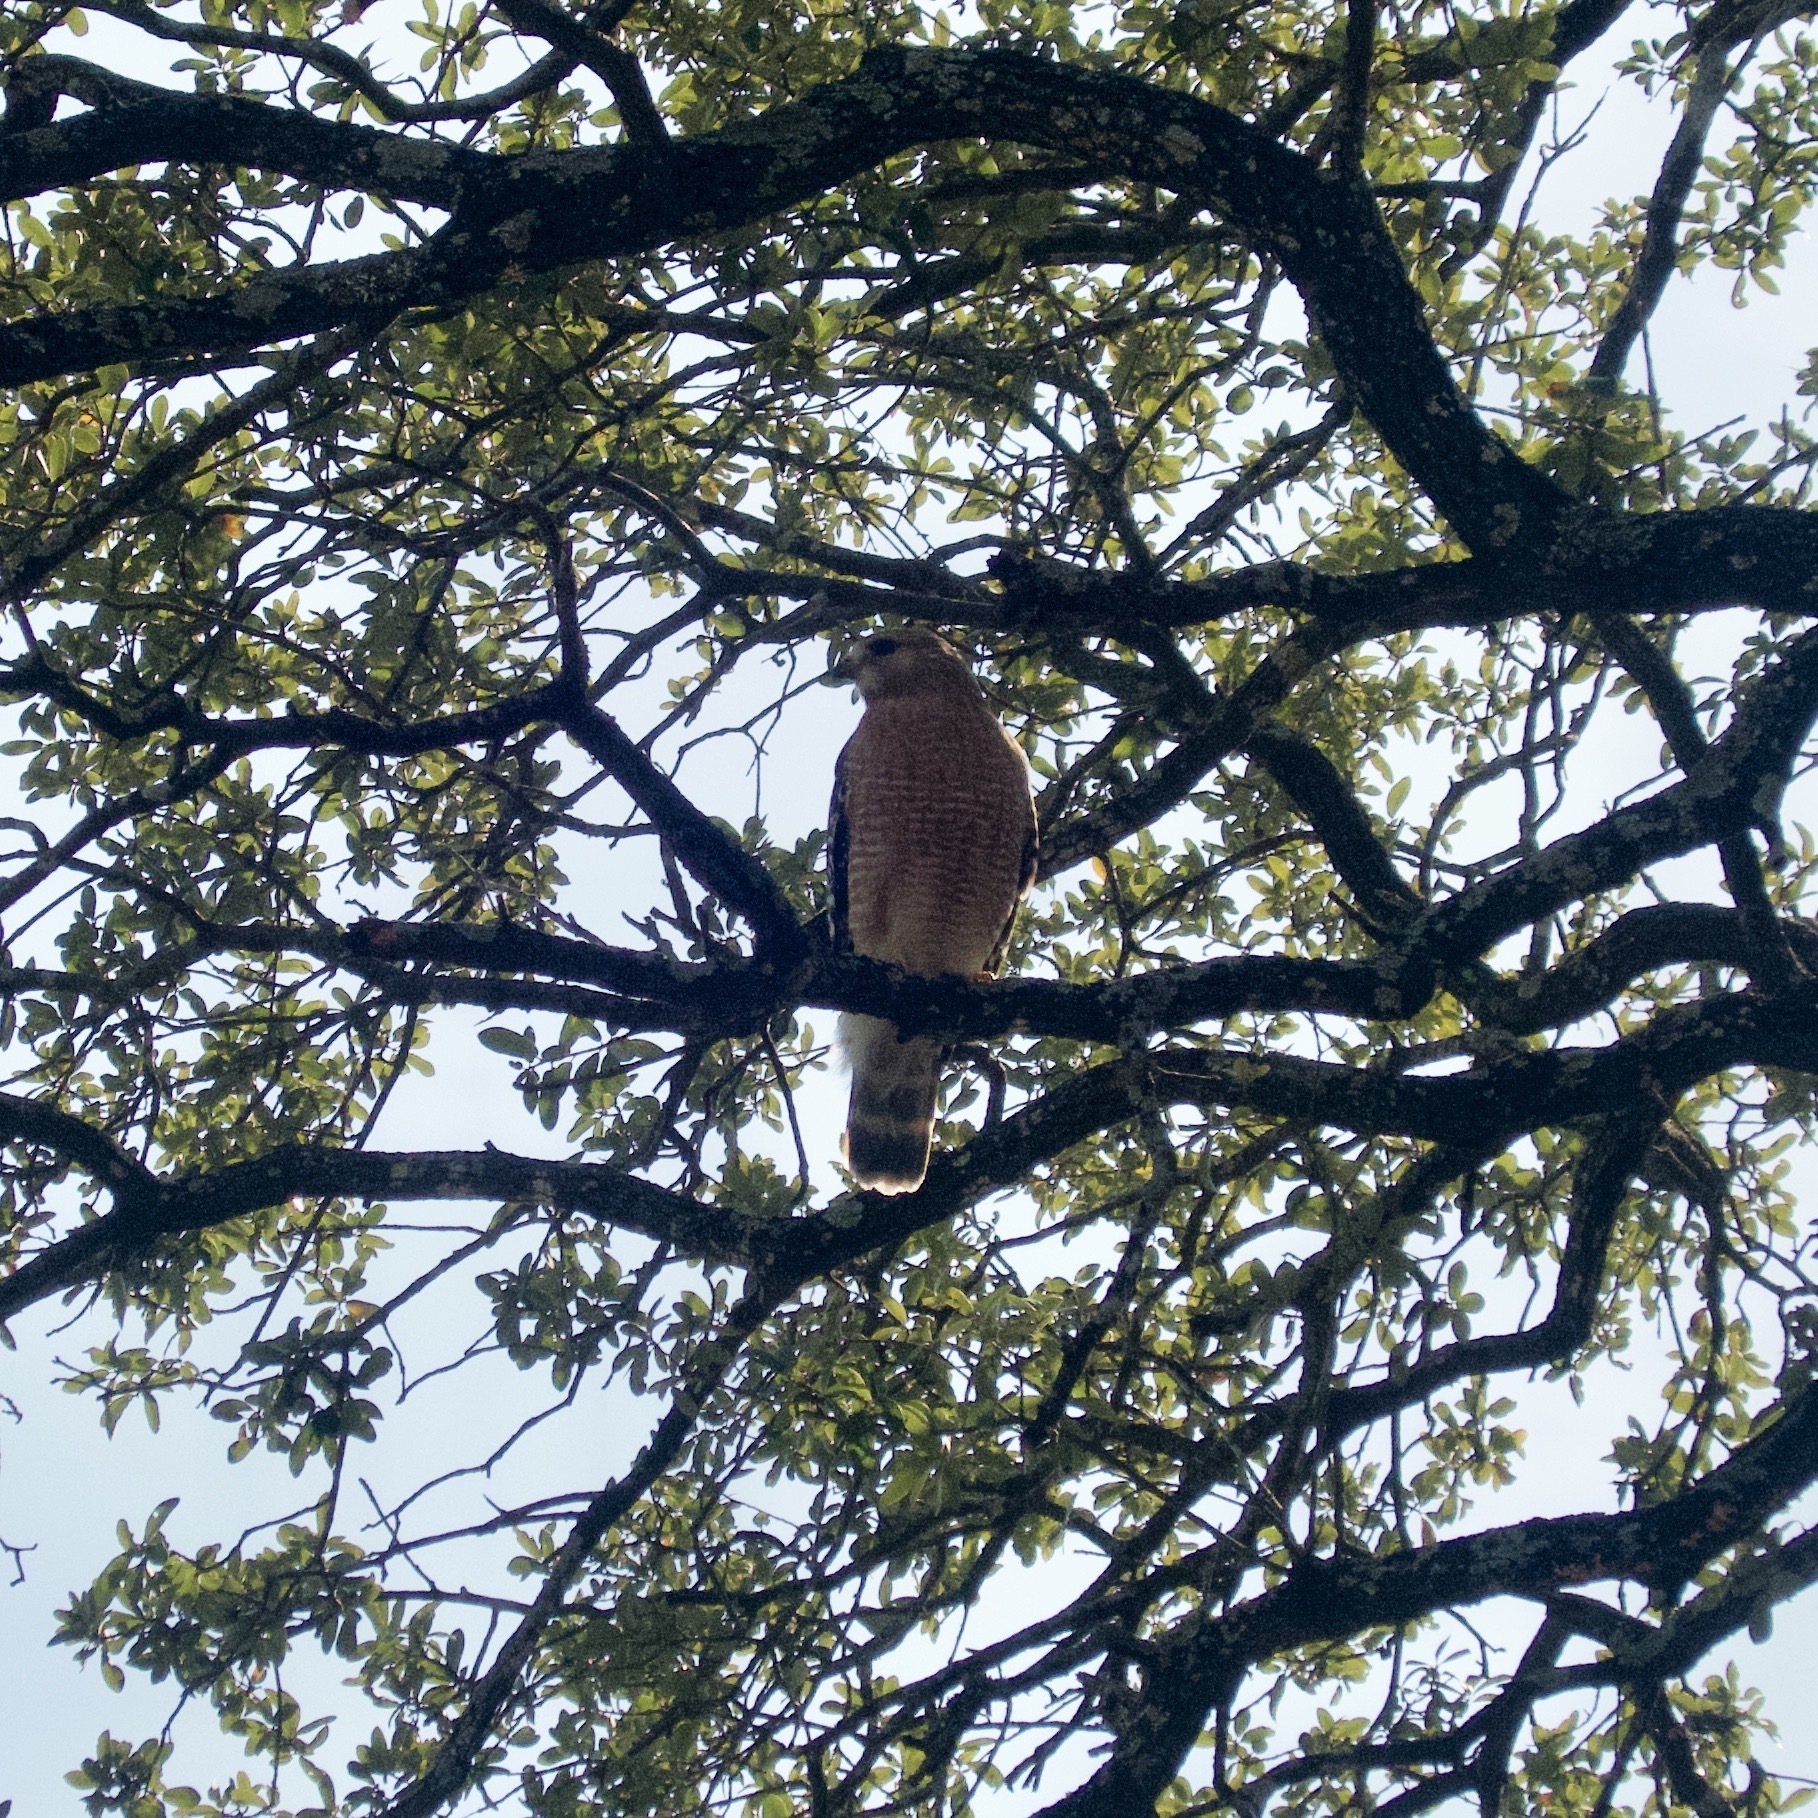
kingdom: Animalia
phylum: Chordata
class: Aves
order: Accipitriformes
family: Accipitridae
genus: Buteo
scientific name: Buteo lineatus
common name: Red-shouldered hawk
